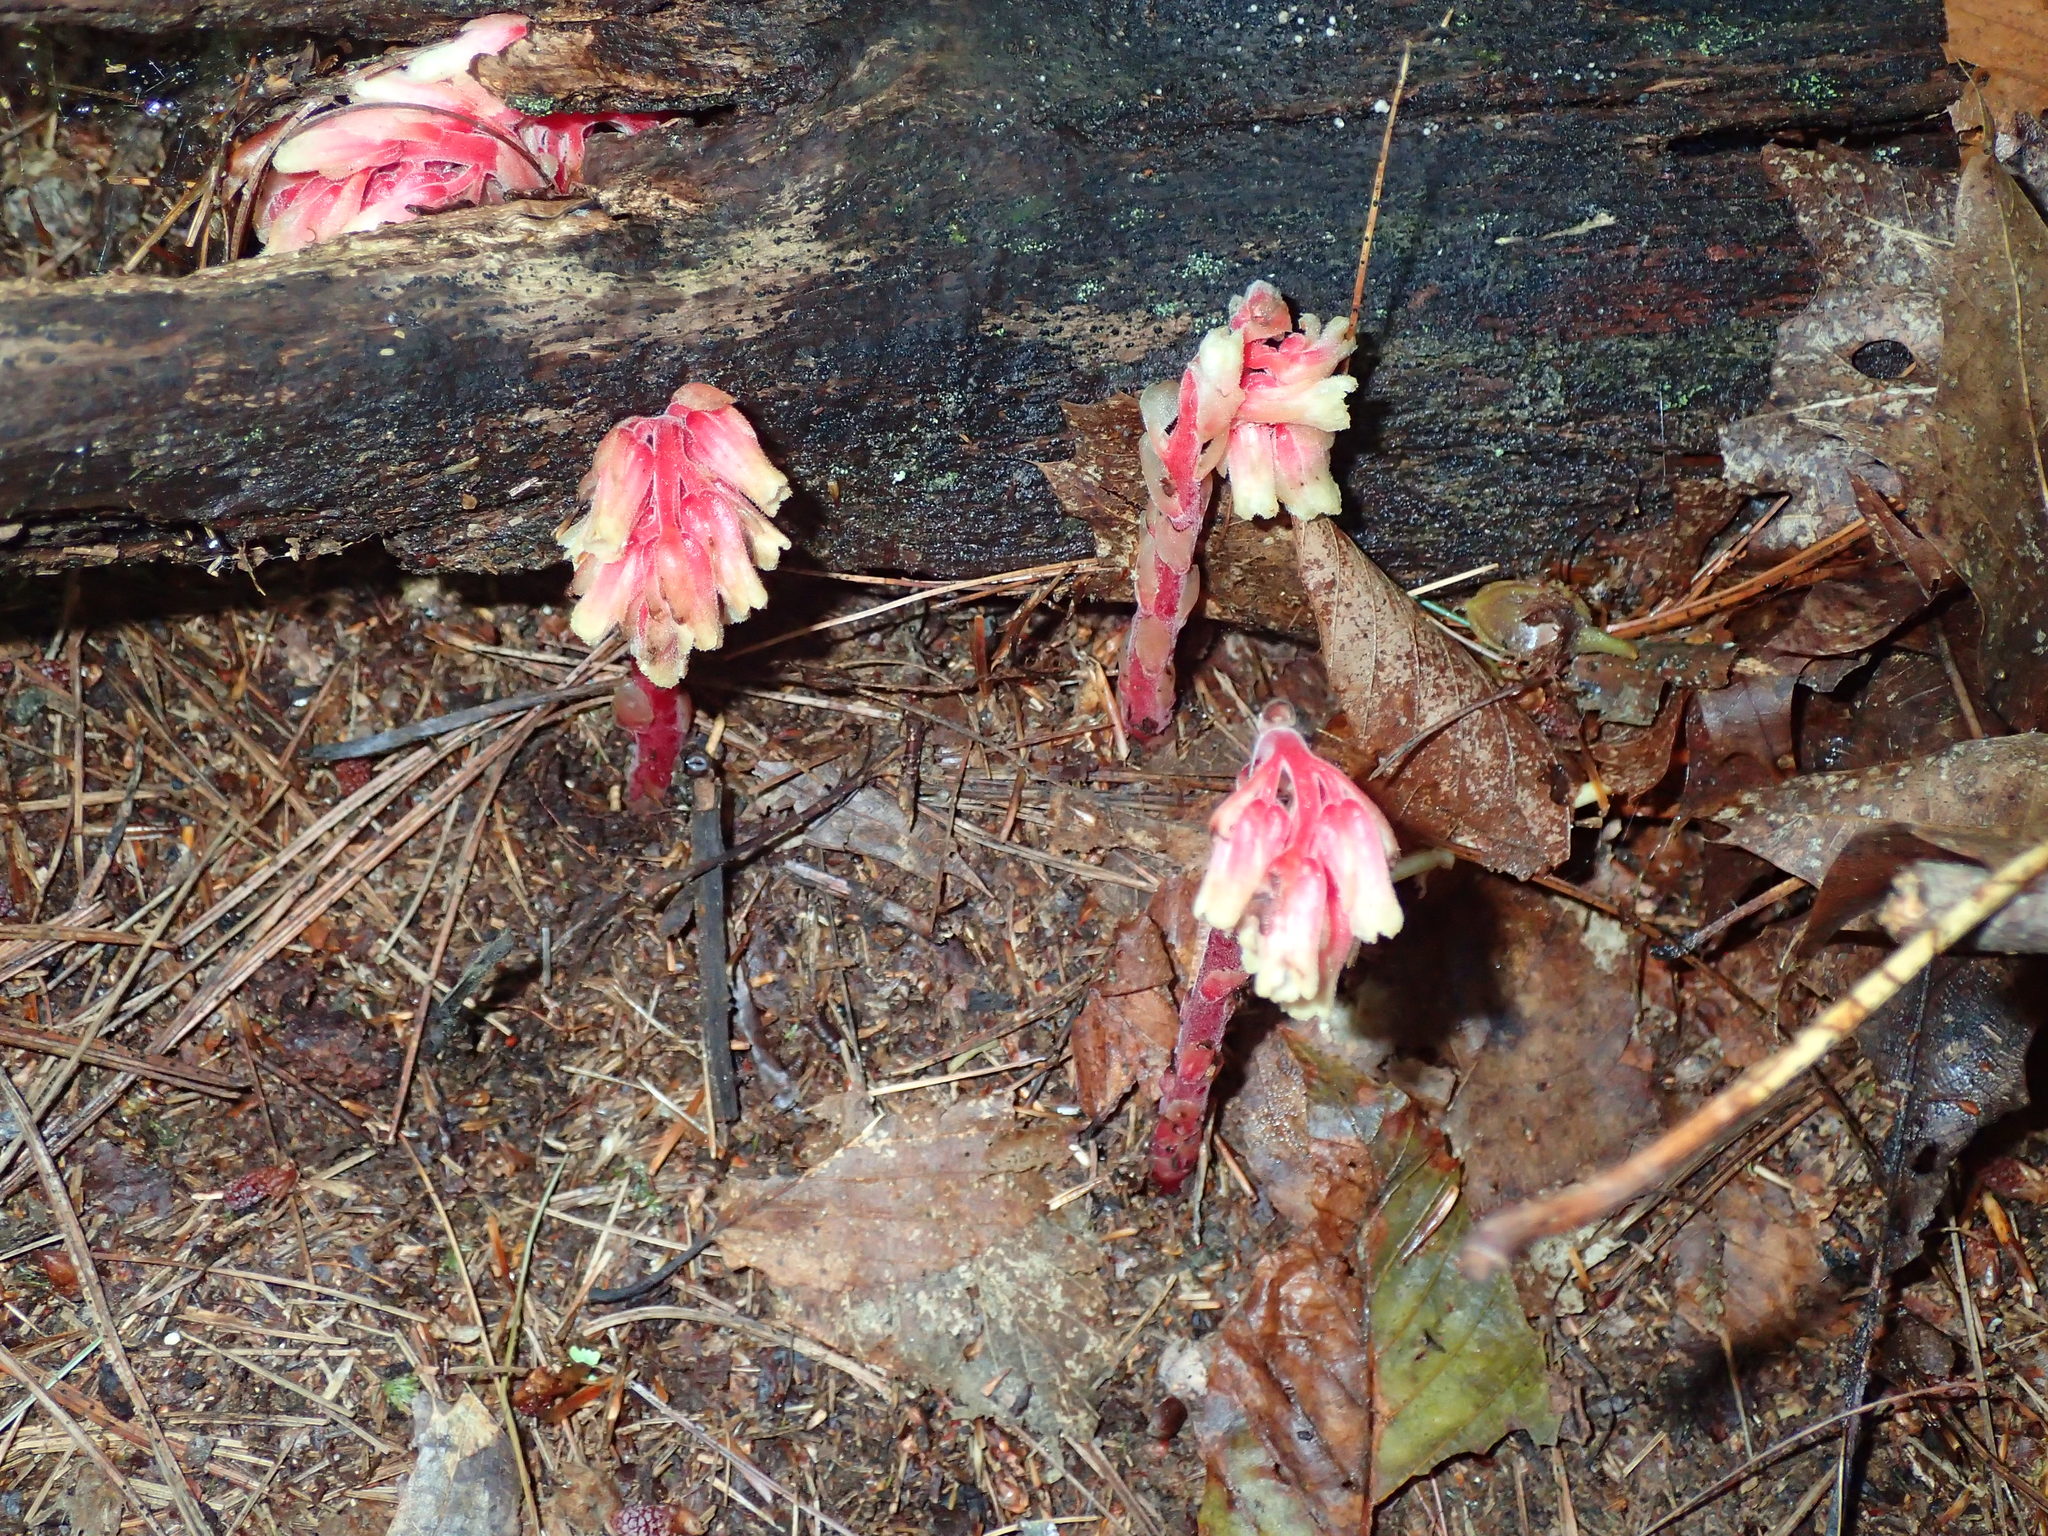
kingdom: Plantae
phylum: Tracheophyta
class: Magnoliopsida
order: Ericales
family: Ericaceae
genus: Hypopitys
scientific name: Hypopitys monotropa
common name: Yellow bird's-nest
